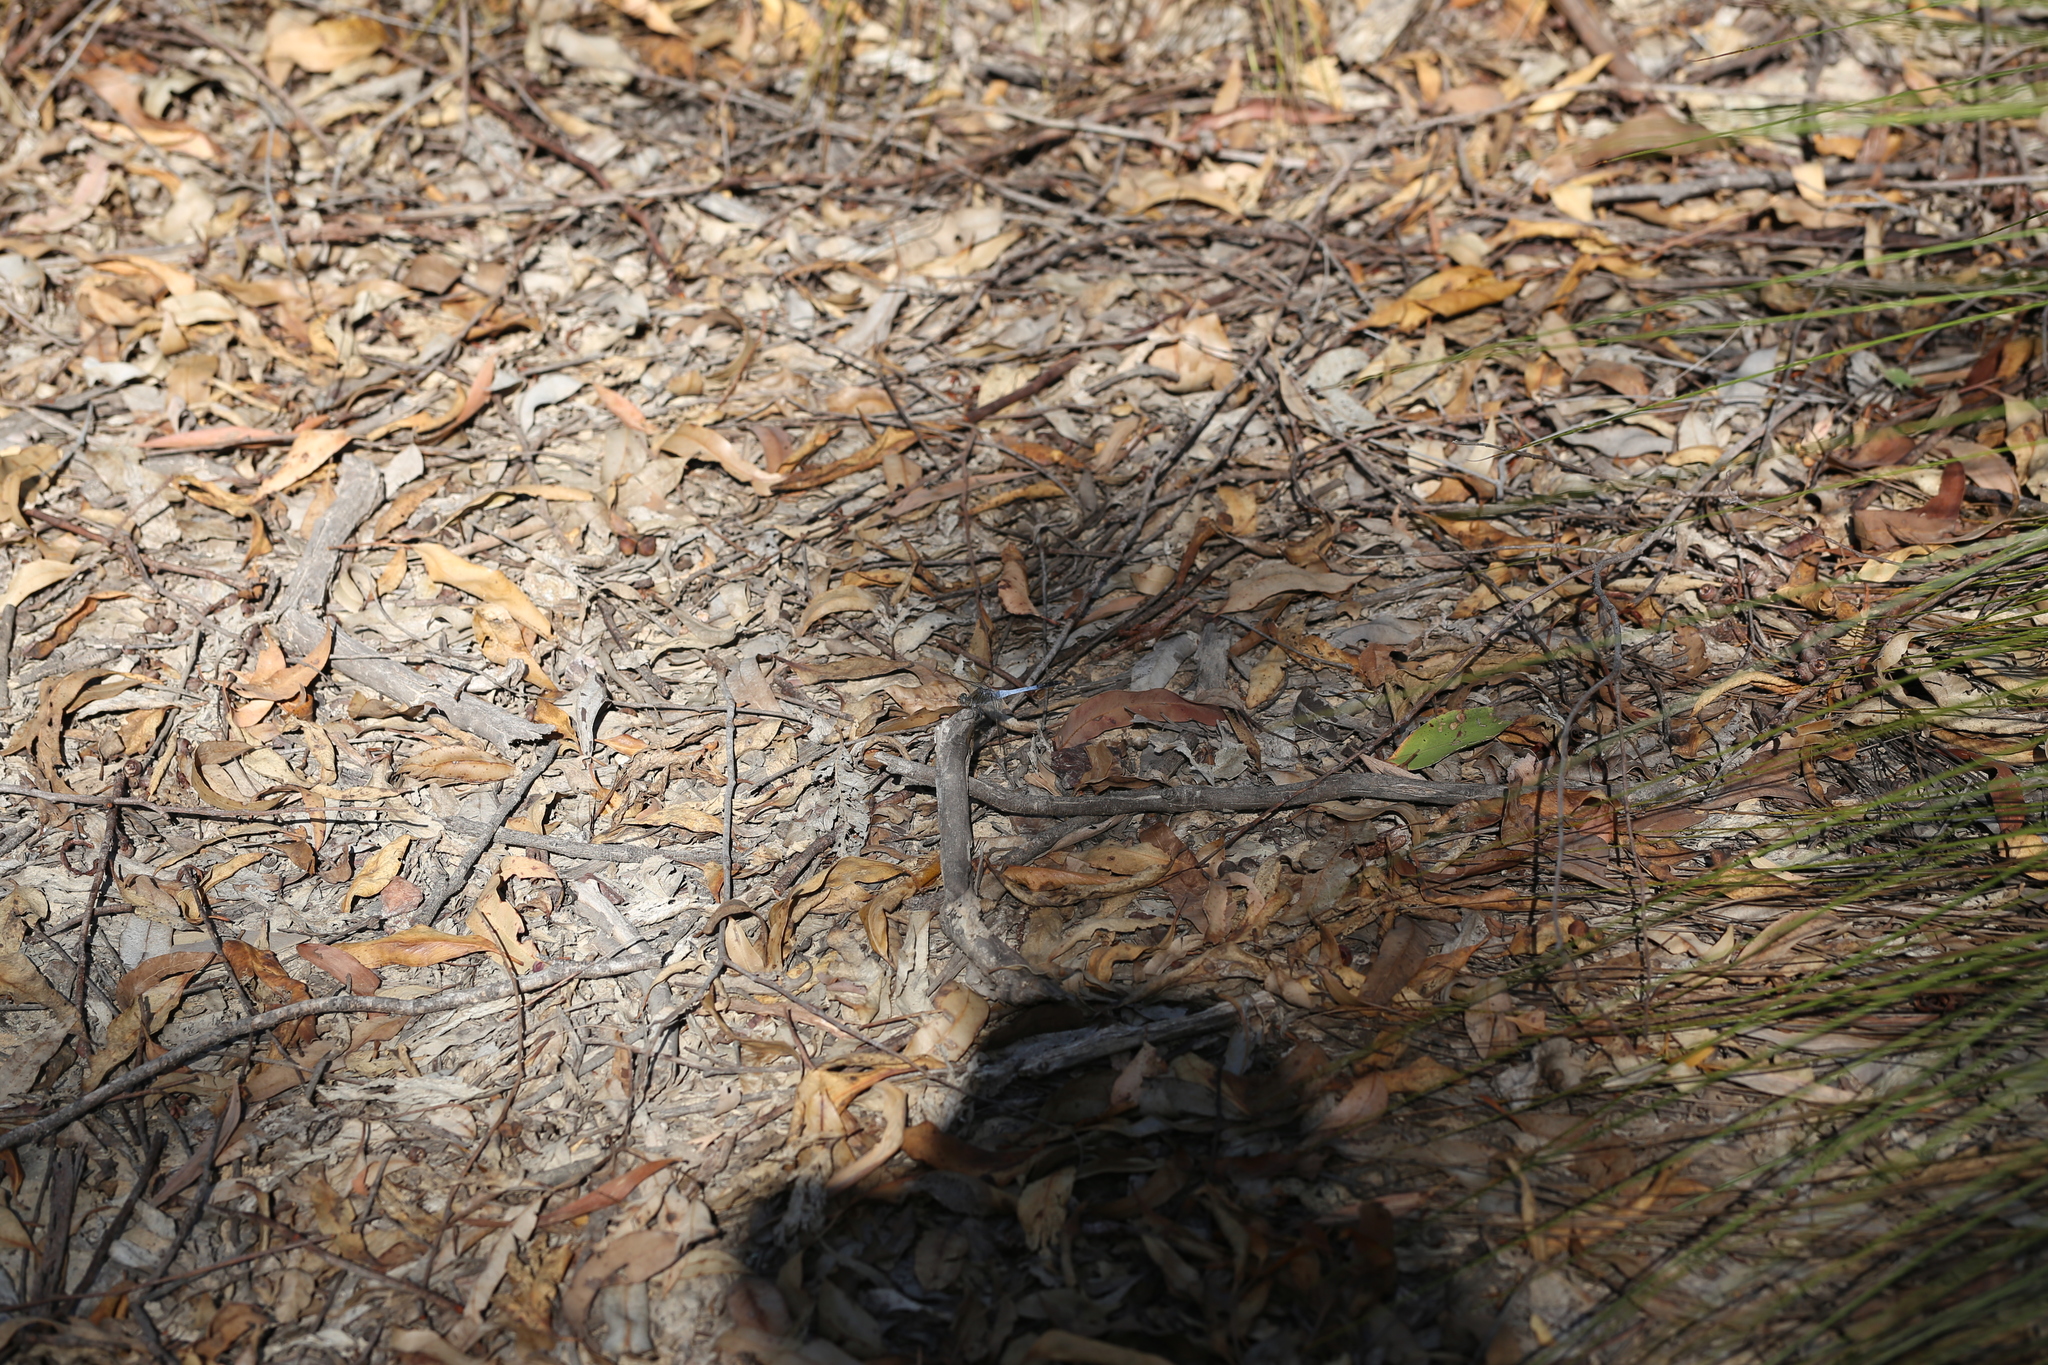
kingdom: Animalia
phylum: Arthropoda
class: Insecta
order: Odonata
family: Libellulidae
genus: Orthetrum
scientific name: Orthetrum caledonicum
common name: Blue skimmer
